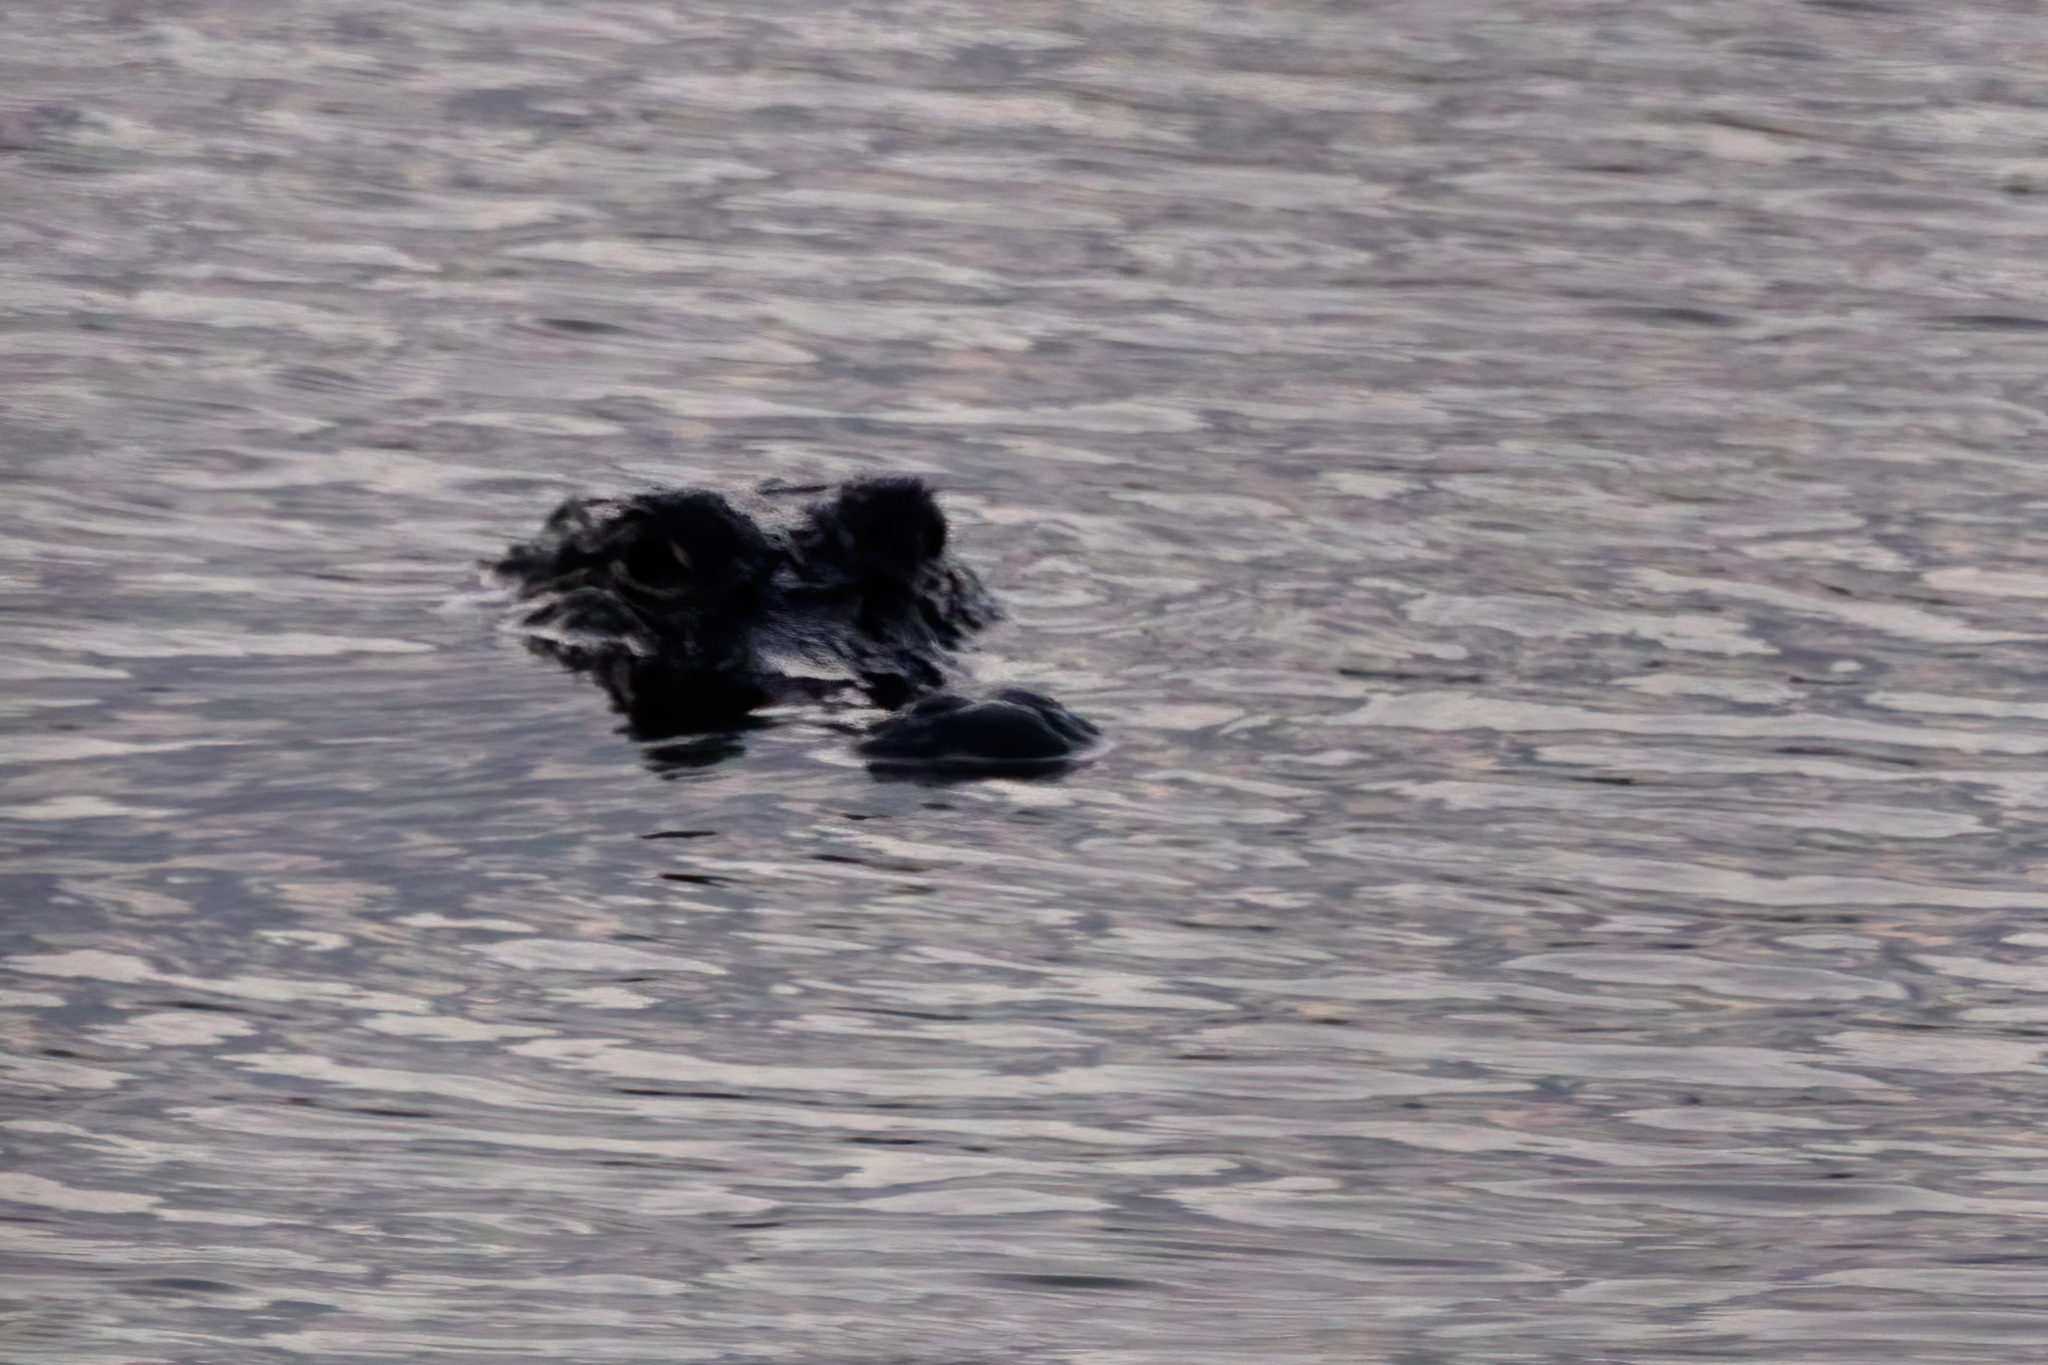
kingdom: Animalia
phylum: Chordata
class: Crocodylia
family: Alligatoridae
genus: Alligator
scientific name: Alligator mississippiensis
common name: American alligator
